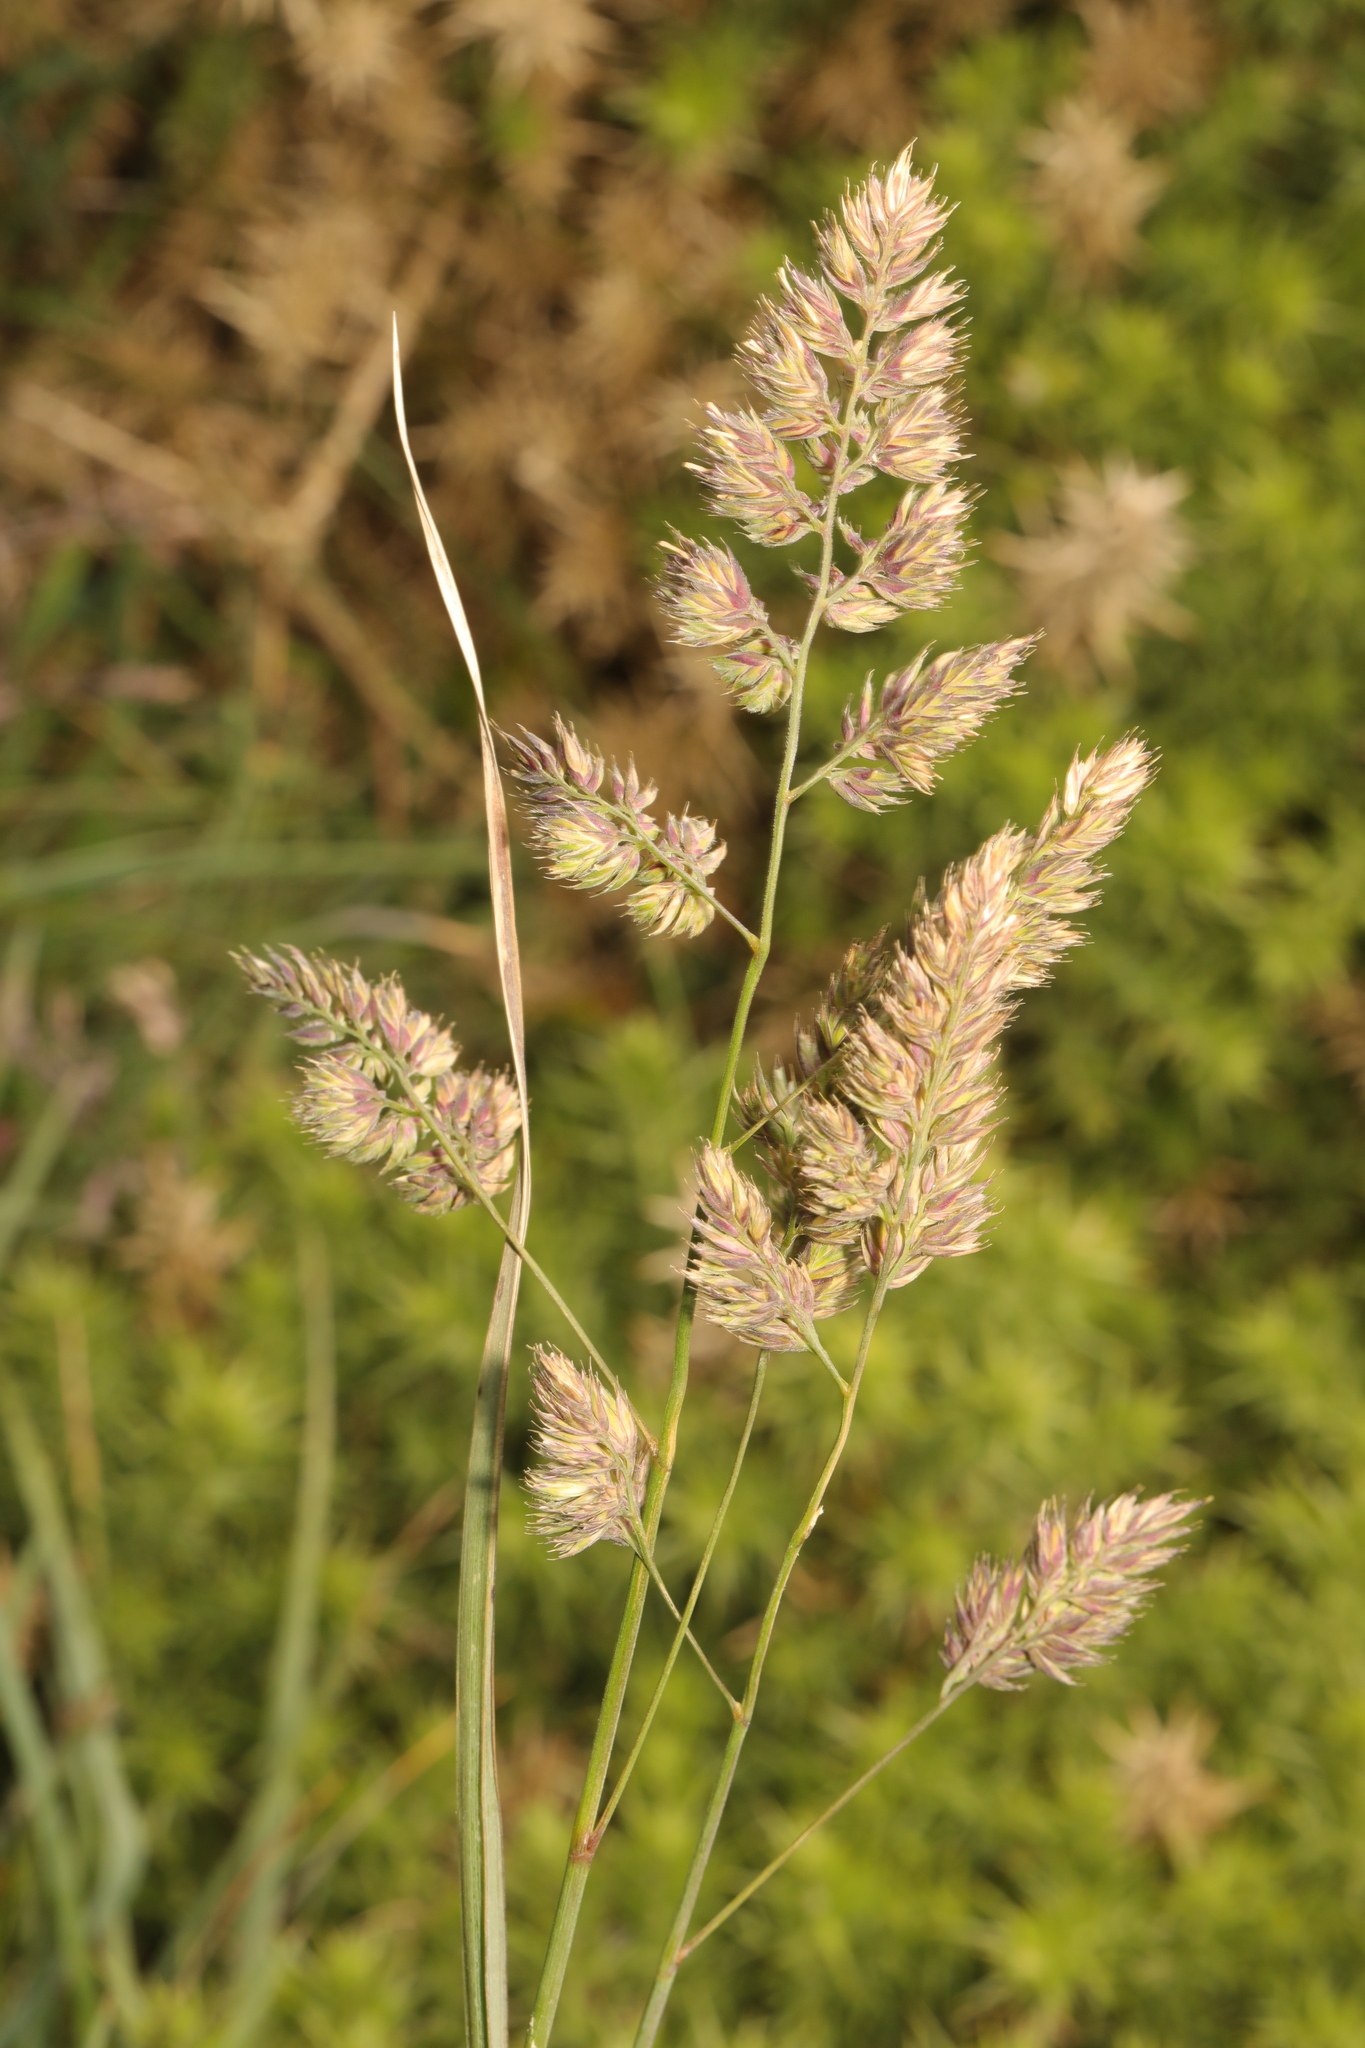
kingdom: Plantae
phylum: Tracheophyta
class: Liliopsida
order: Poales
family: Poaceae
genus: Dactylis
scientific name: Dactylis glomerata
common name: Orchardgrass
